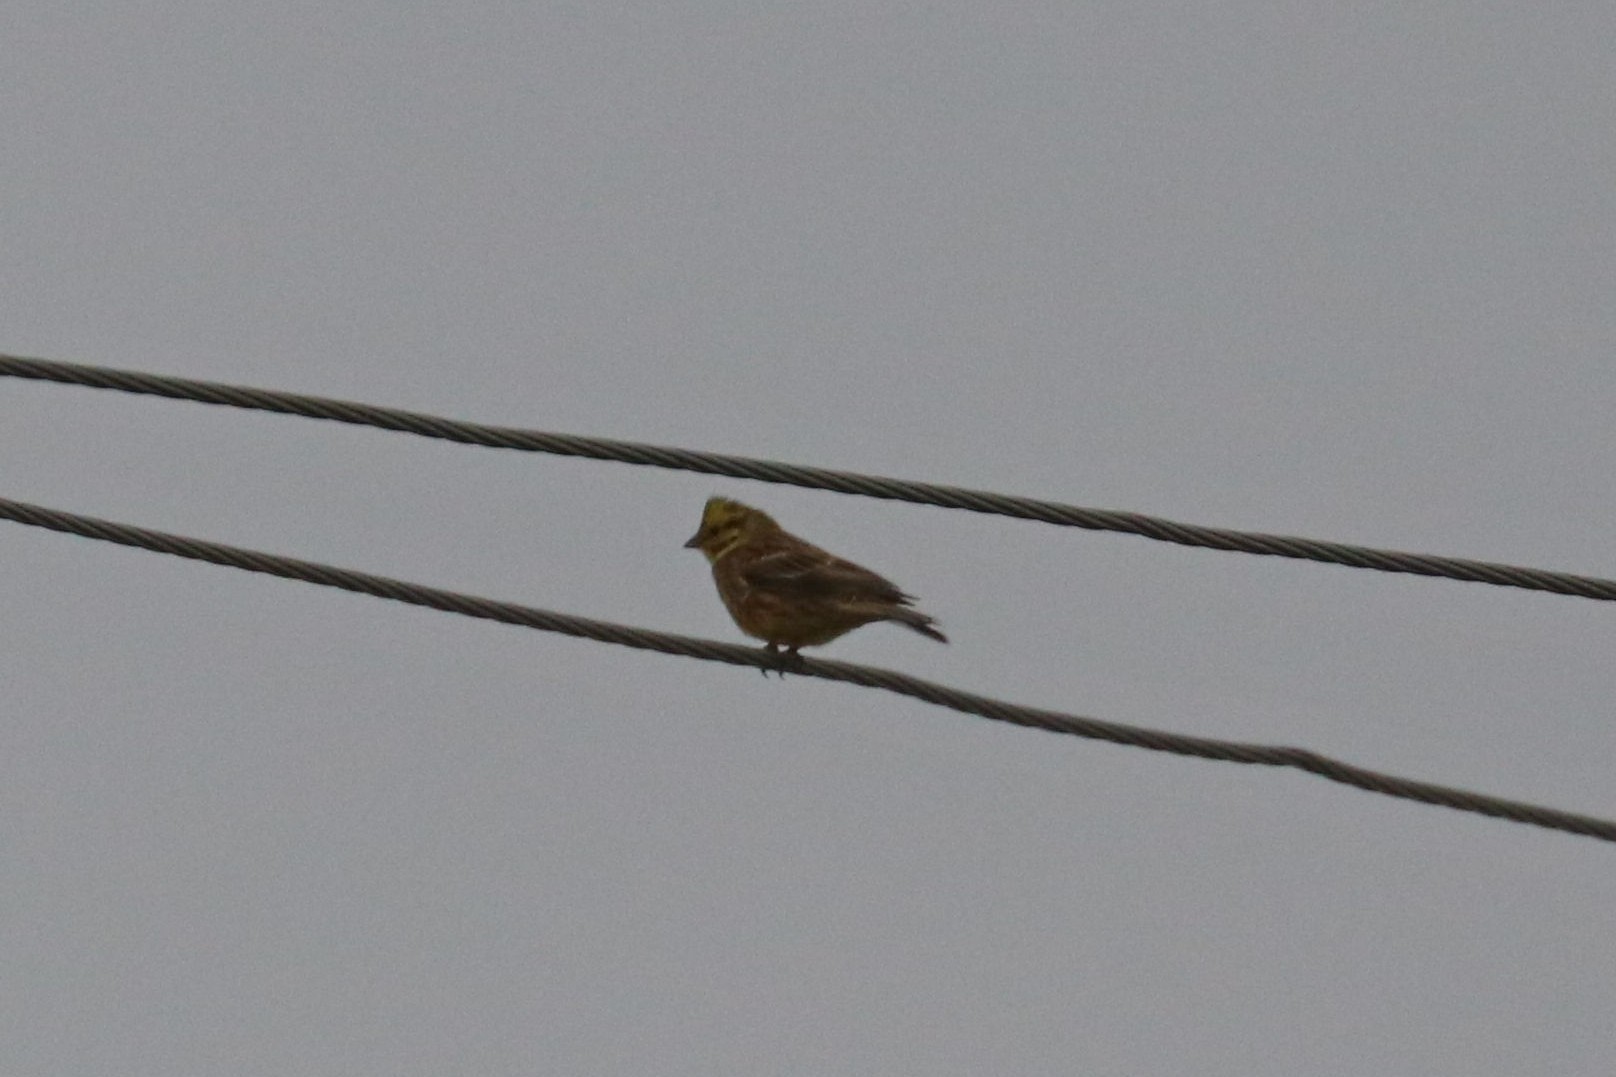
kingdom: Animalia
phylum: Chordata
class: Aves
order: Passeriformes
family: Emberizidae
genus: Emberiza
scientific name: Emberiza citrinella
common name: Yellowhammer
